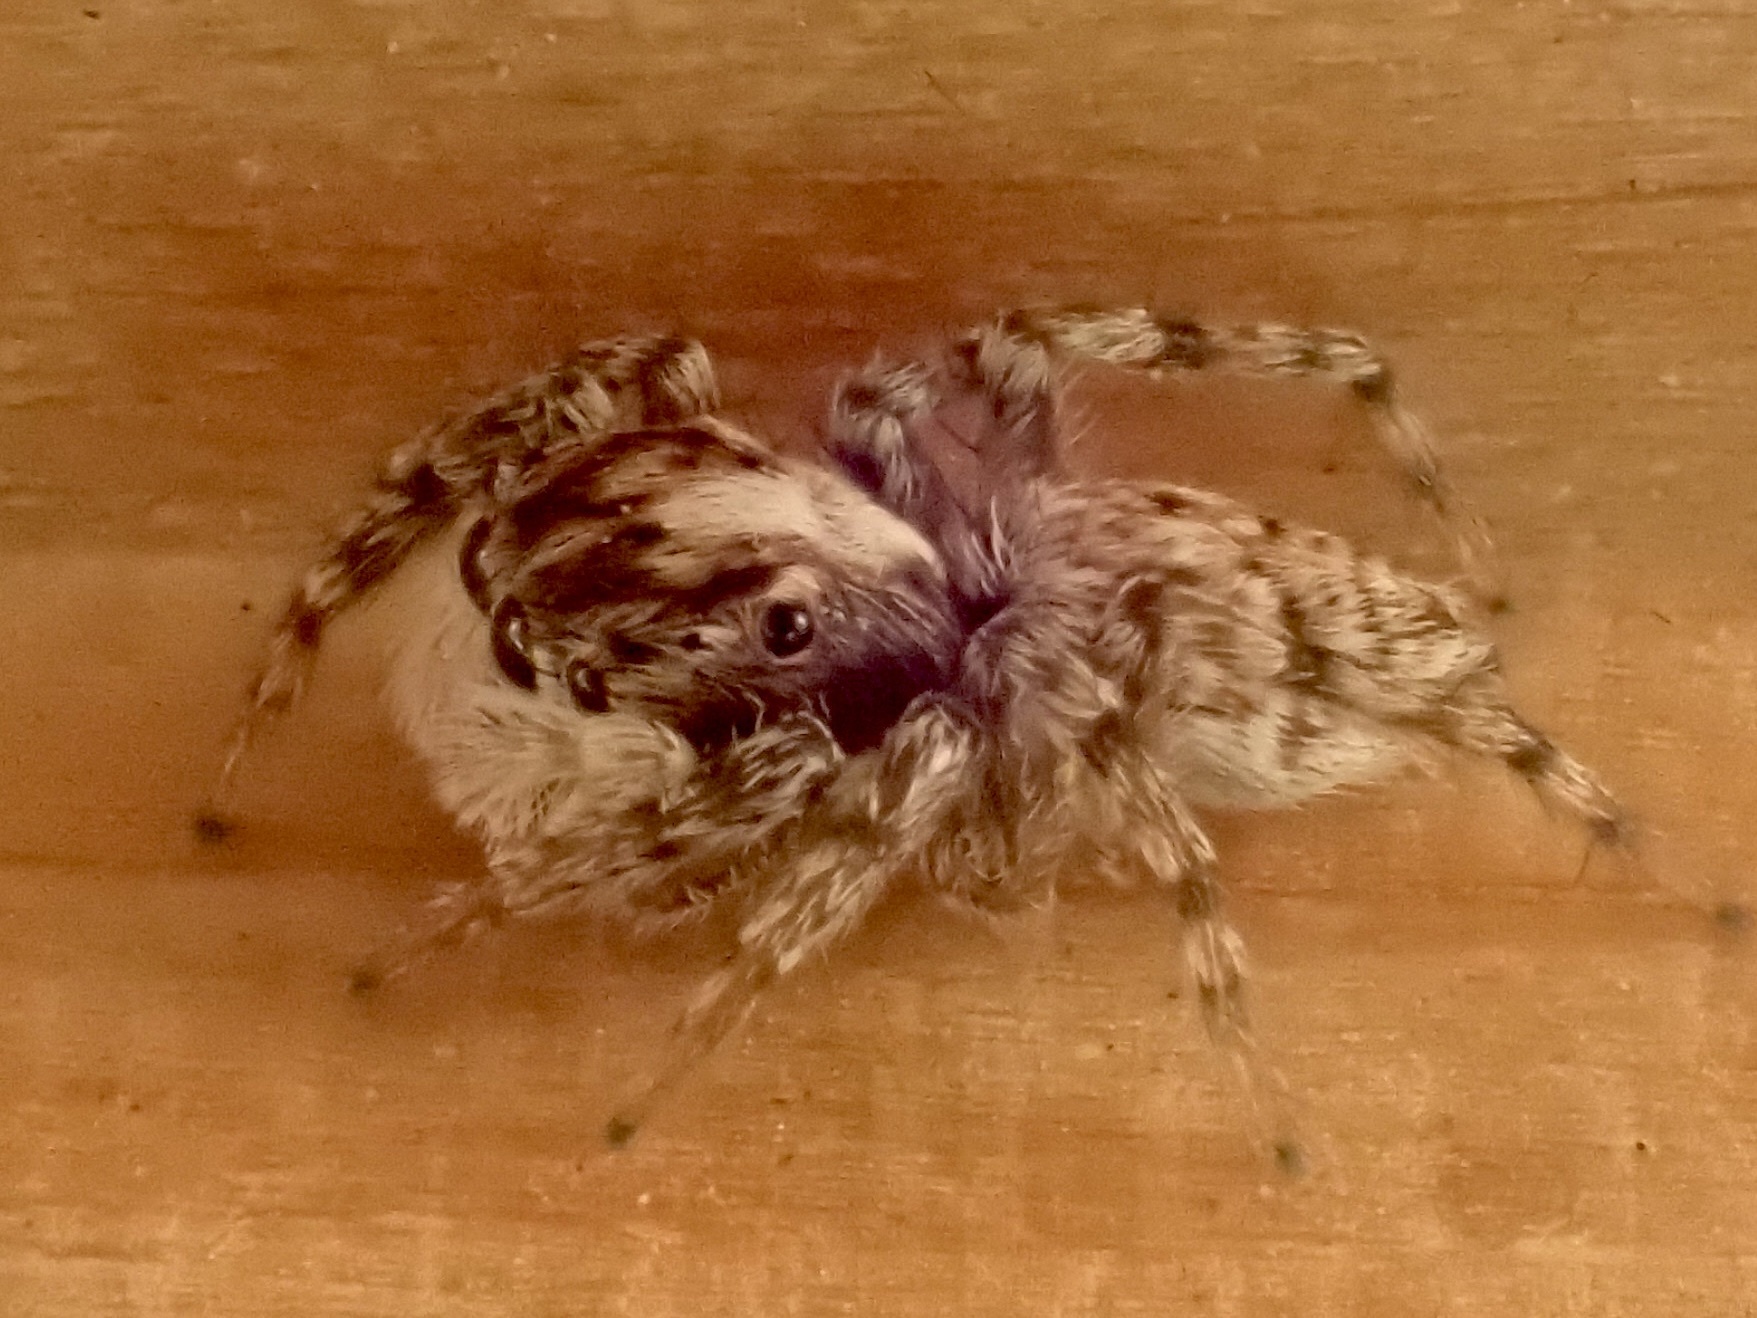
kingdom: Animalia
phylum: Arthropoda
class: Arachnida
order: Araneae
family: Salticidae
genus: Menemerus
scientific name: Menemerus semilimbatus
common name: Jumping spider
